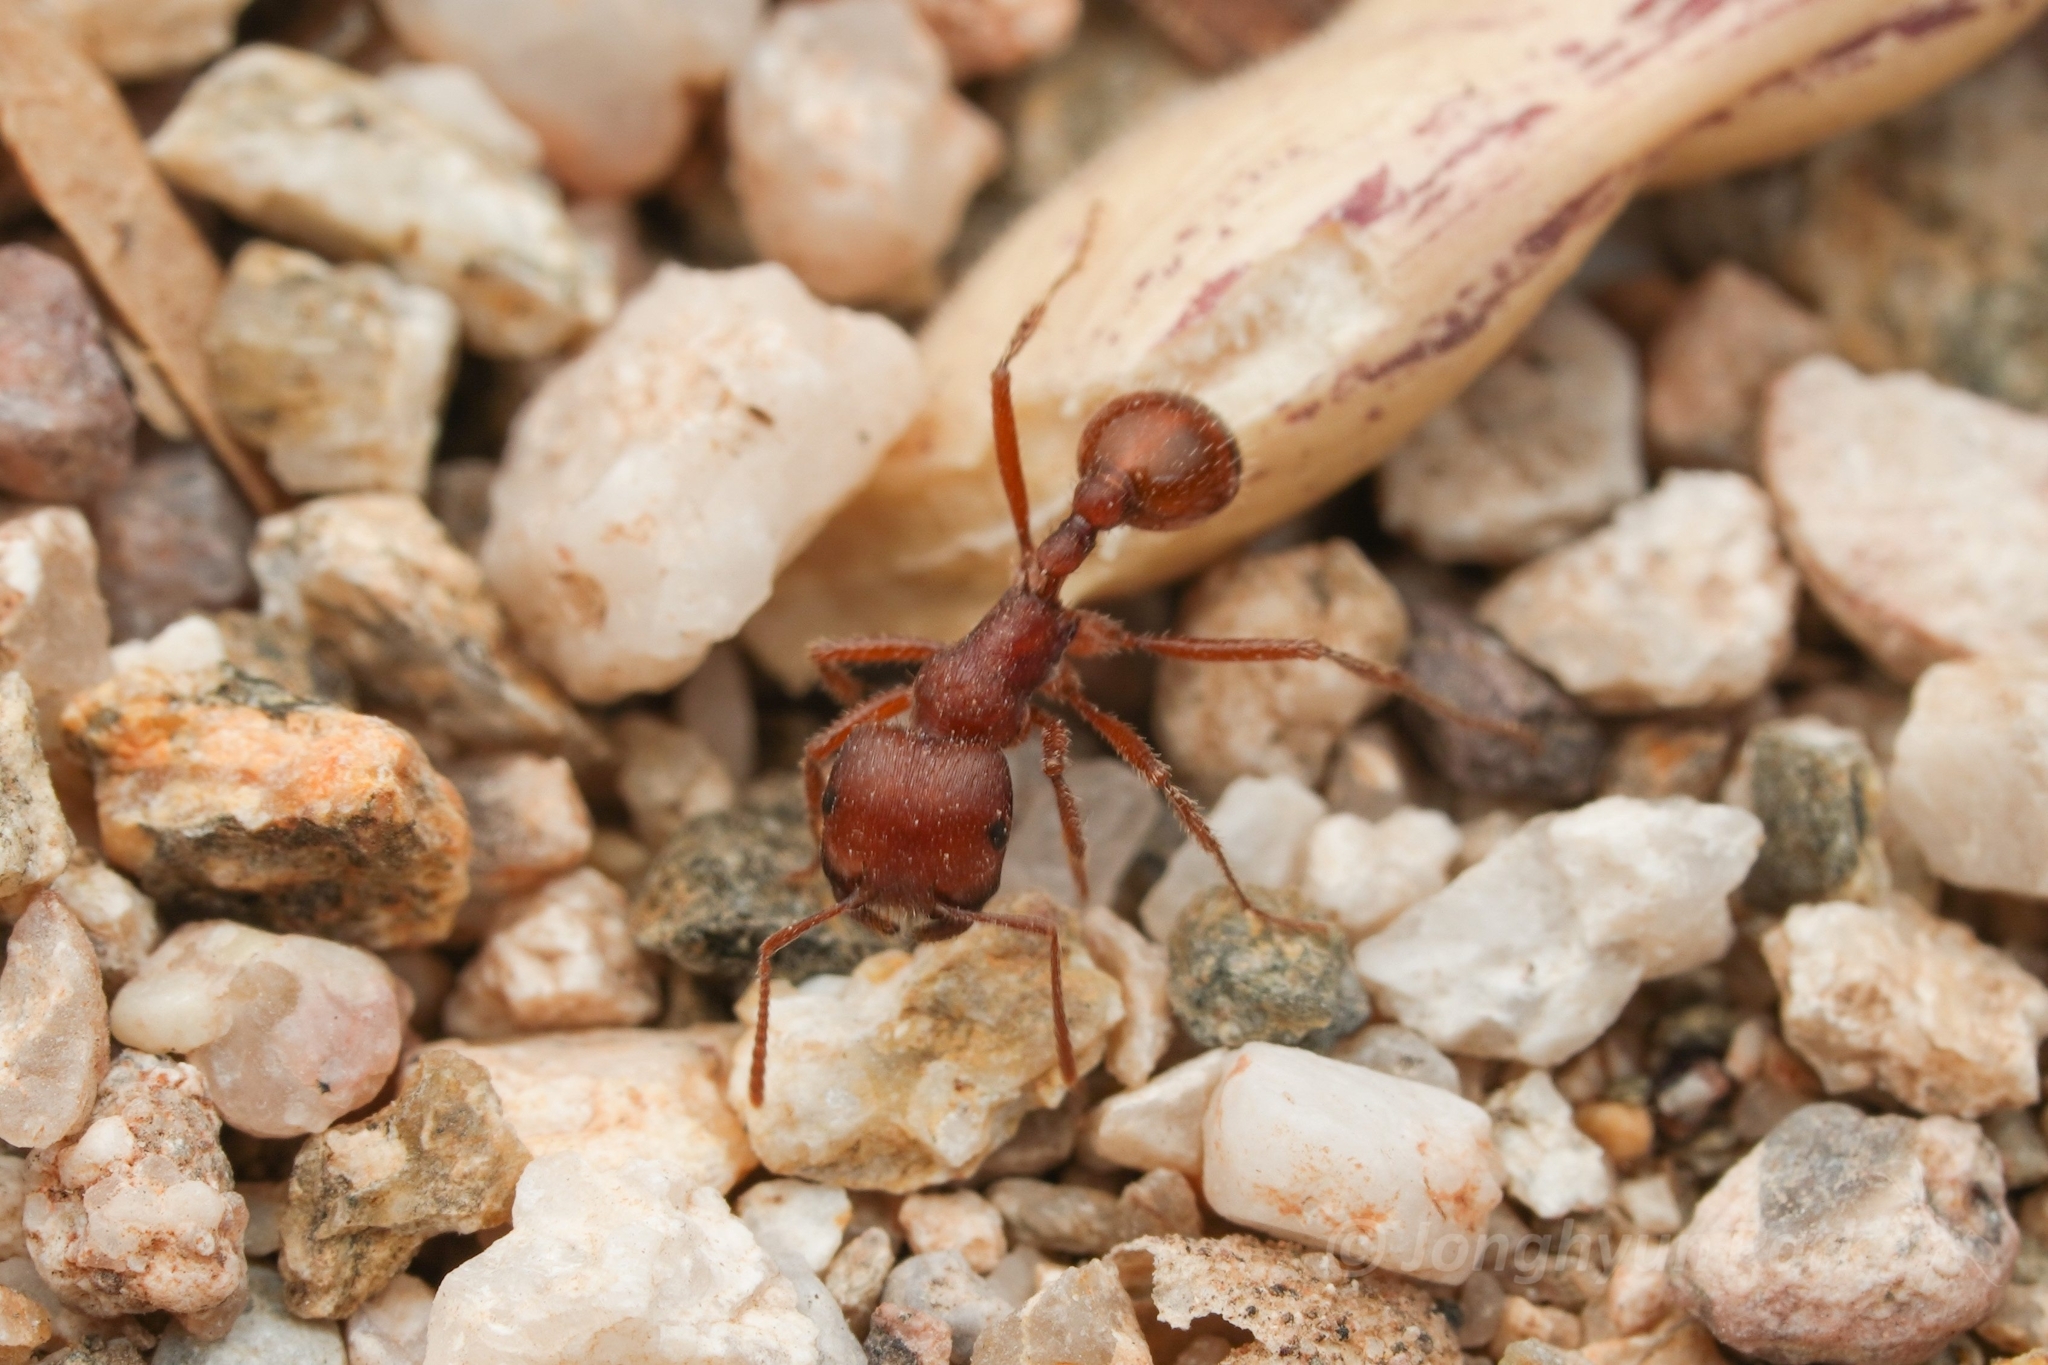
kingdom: Animalia
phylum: Arthropoda
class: Insecta
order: Hymenoptera
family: Formicidae
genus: Pogonomyrmex
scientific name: Pogonomyrmex barbatus
